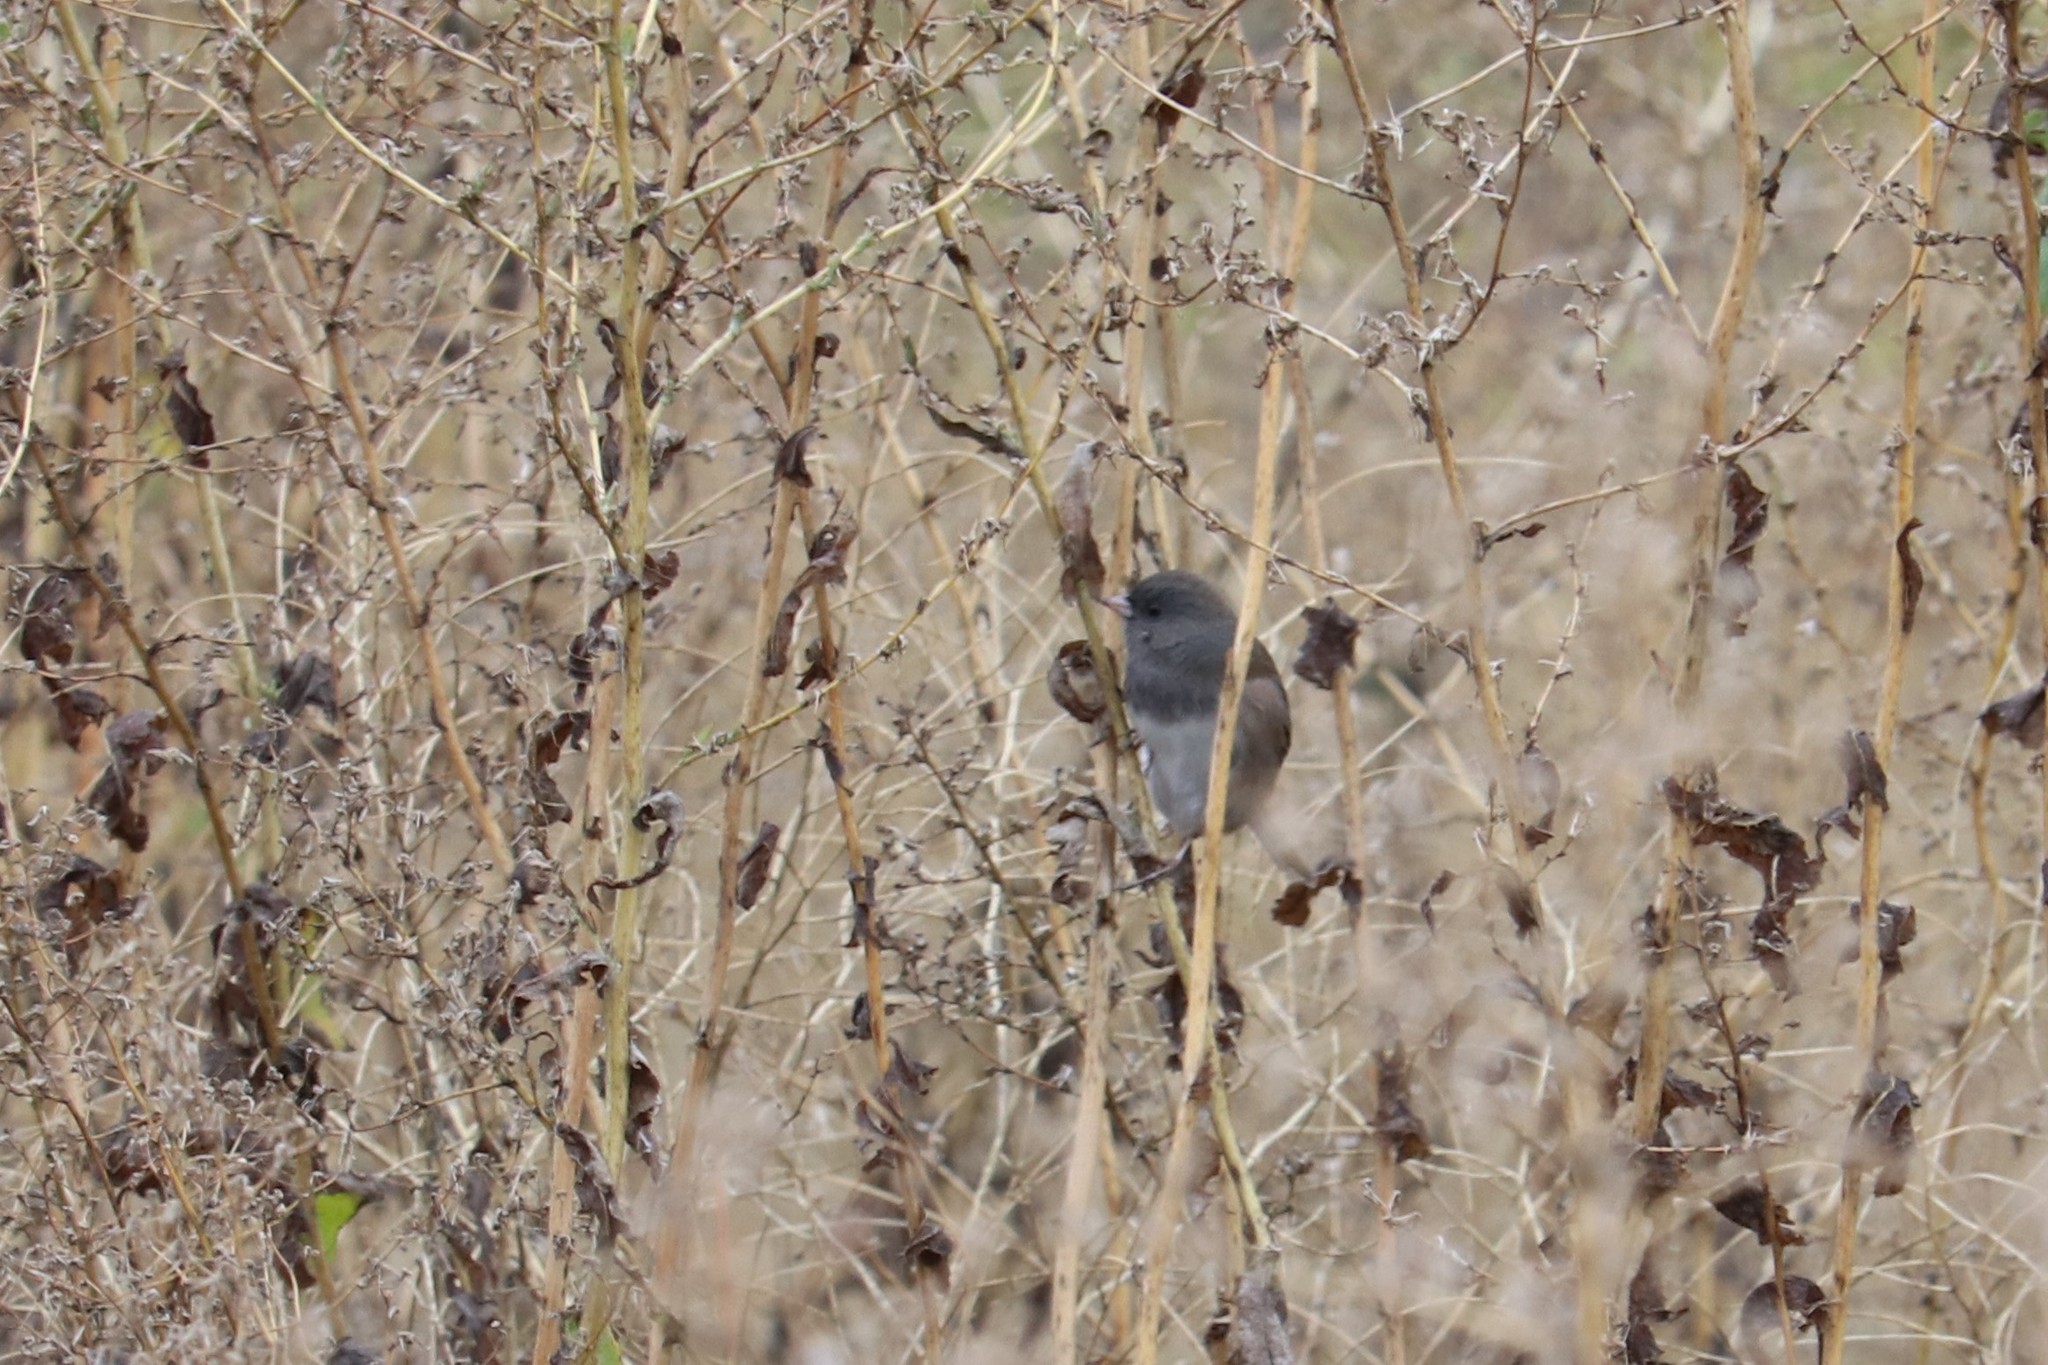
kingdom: Animalia
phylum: Chordata
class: Aves
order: Passeriformes
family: Passerellidae
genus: Junco
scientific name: Junco hyemalis
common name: Dark-eyed junco
